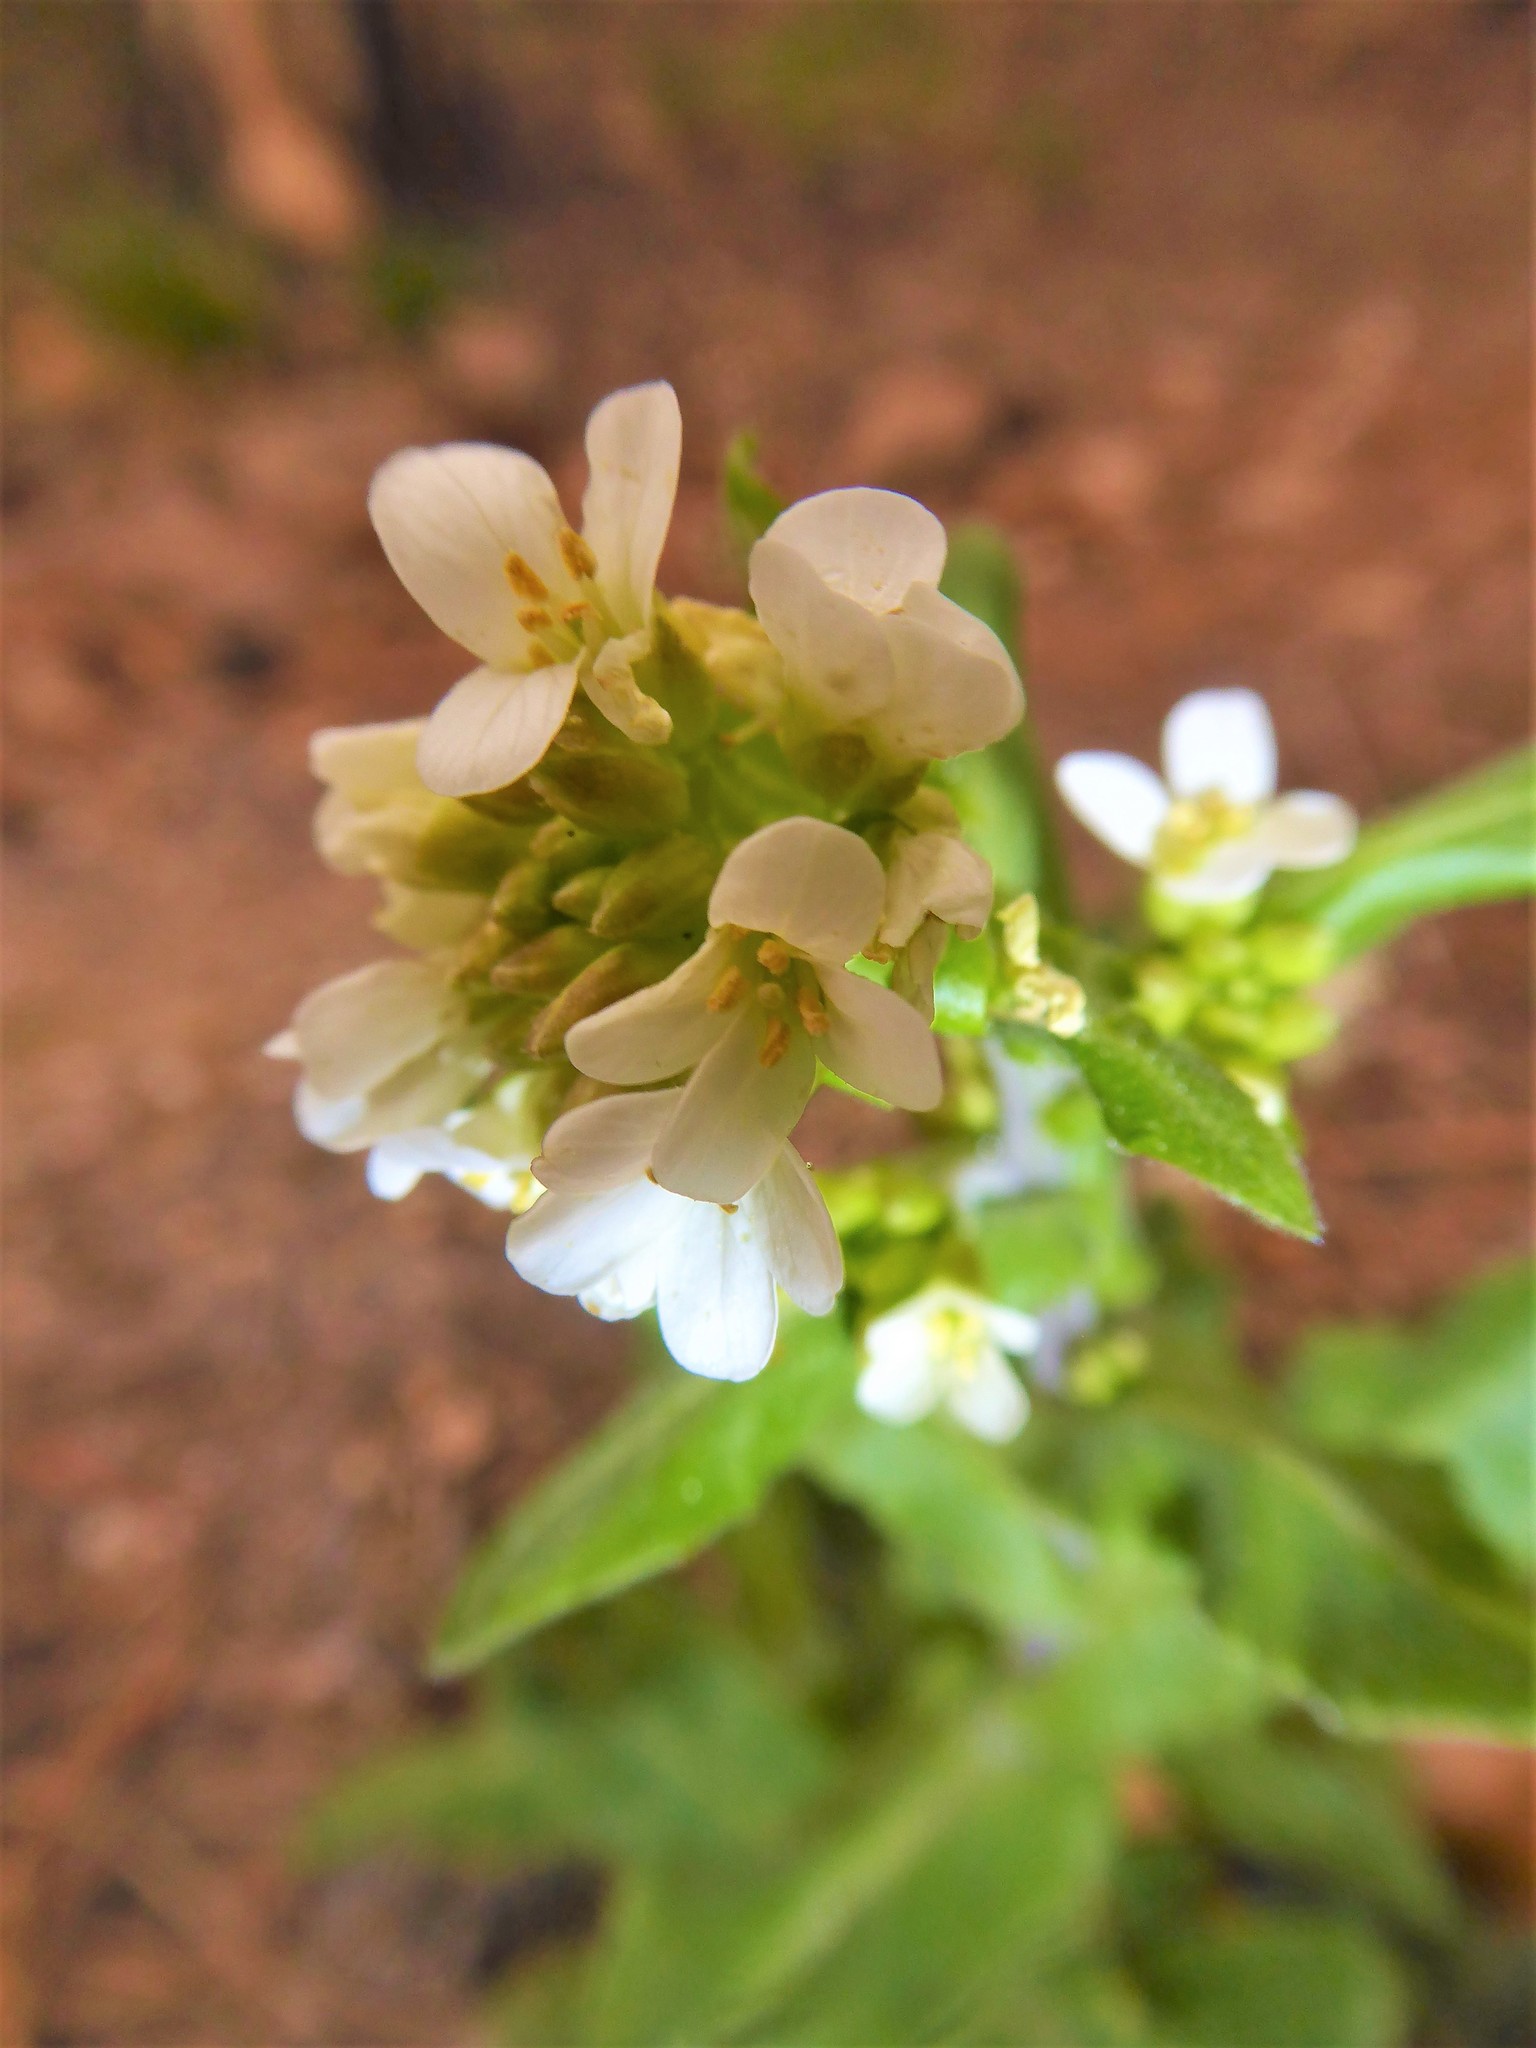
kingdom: Plantae
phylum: Tracheophyta
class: Magnoliopsida
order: Brassicales
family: Brassicaceae
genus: Pseudoturritis
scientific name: Pseudoturritis turrita
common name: Tower cress
